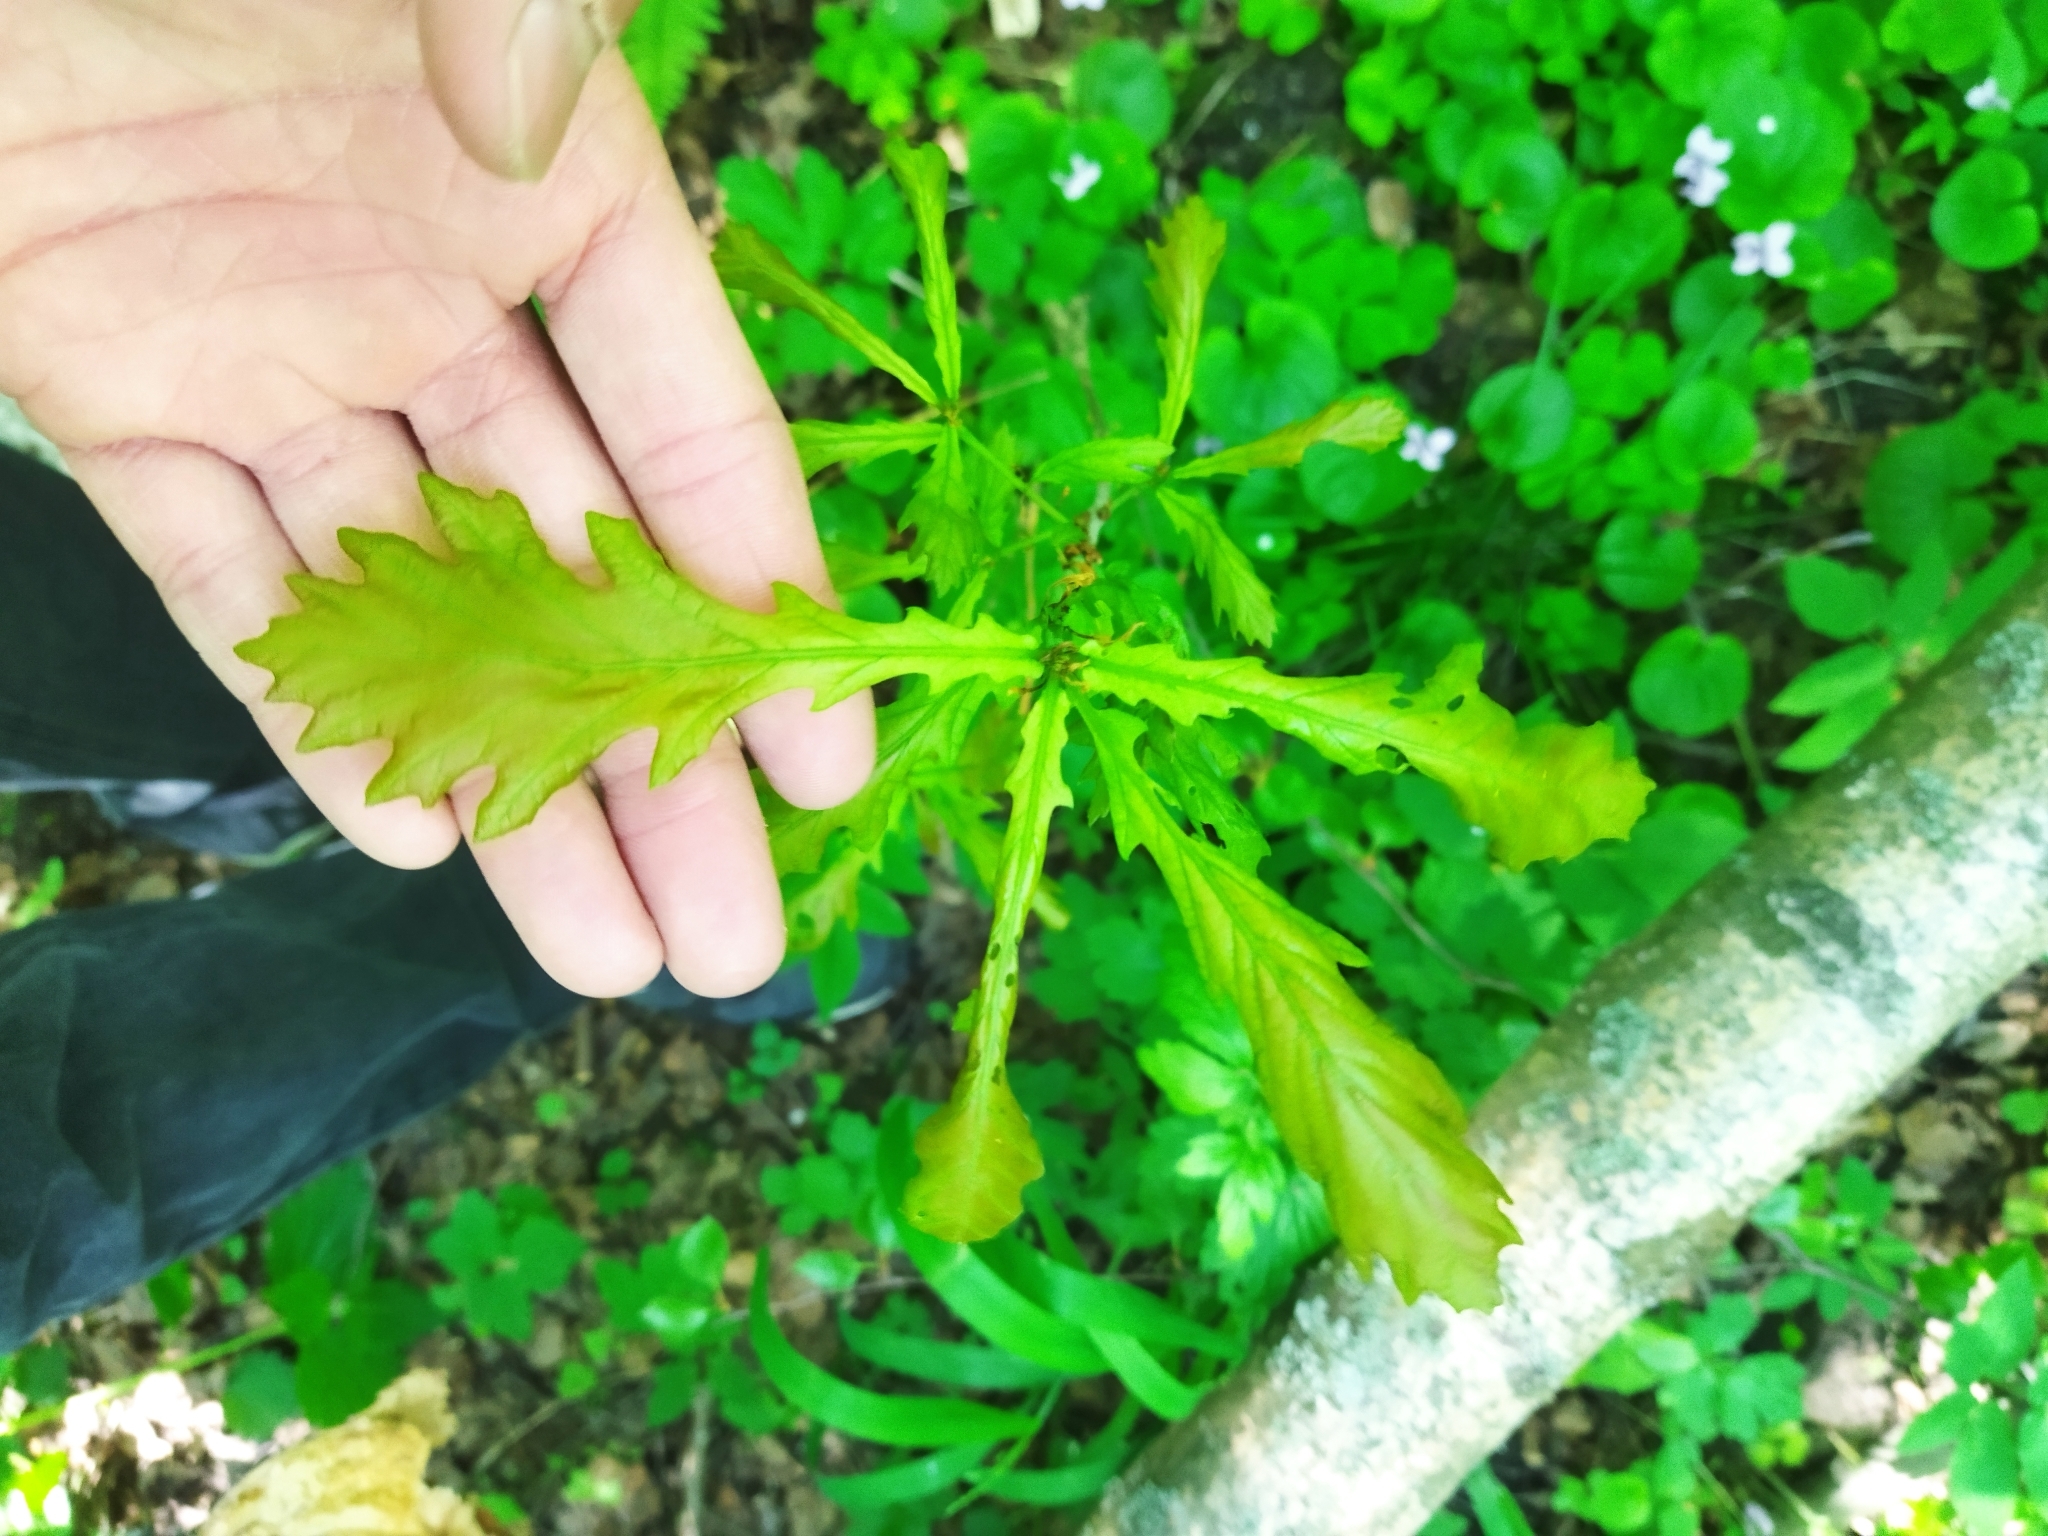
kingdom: Plantae
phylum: Tracheophyta
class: Magnoliopsida
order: Fagales
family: Fagaceae
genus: Quercus
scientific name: Quercus robur
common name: Pedunculate oak
